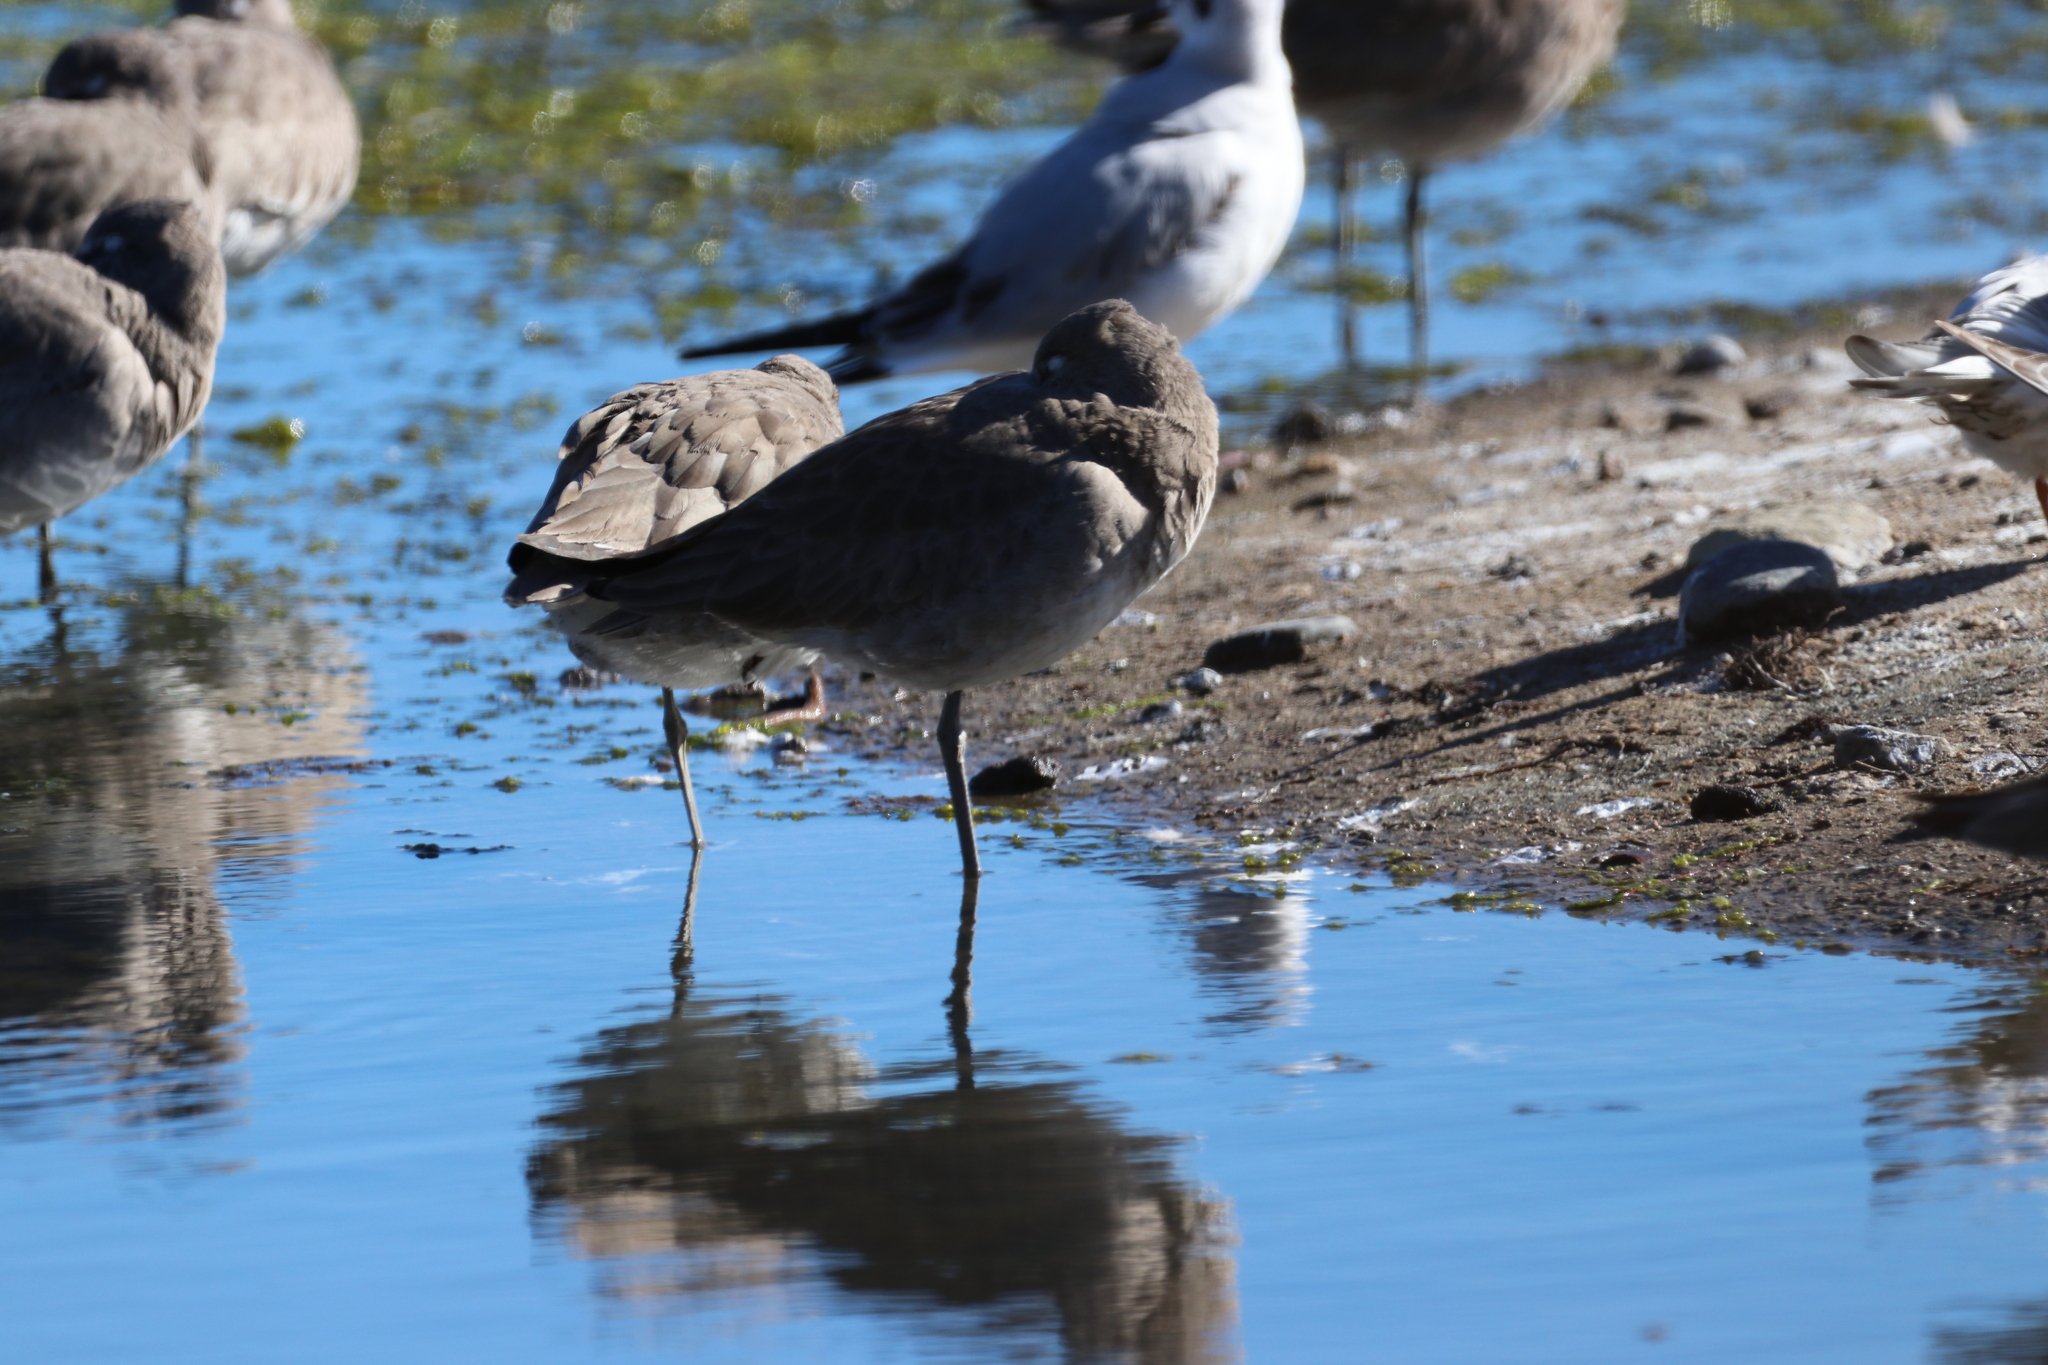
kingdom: Animalia
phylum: Chordata
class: Aves
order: Charadriiformes
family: Scolopacidae
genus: Tringa
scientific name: Tringa semipalmata
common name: Willet
